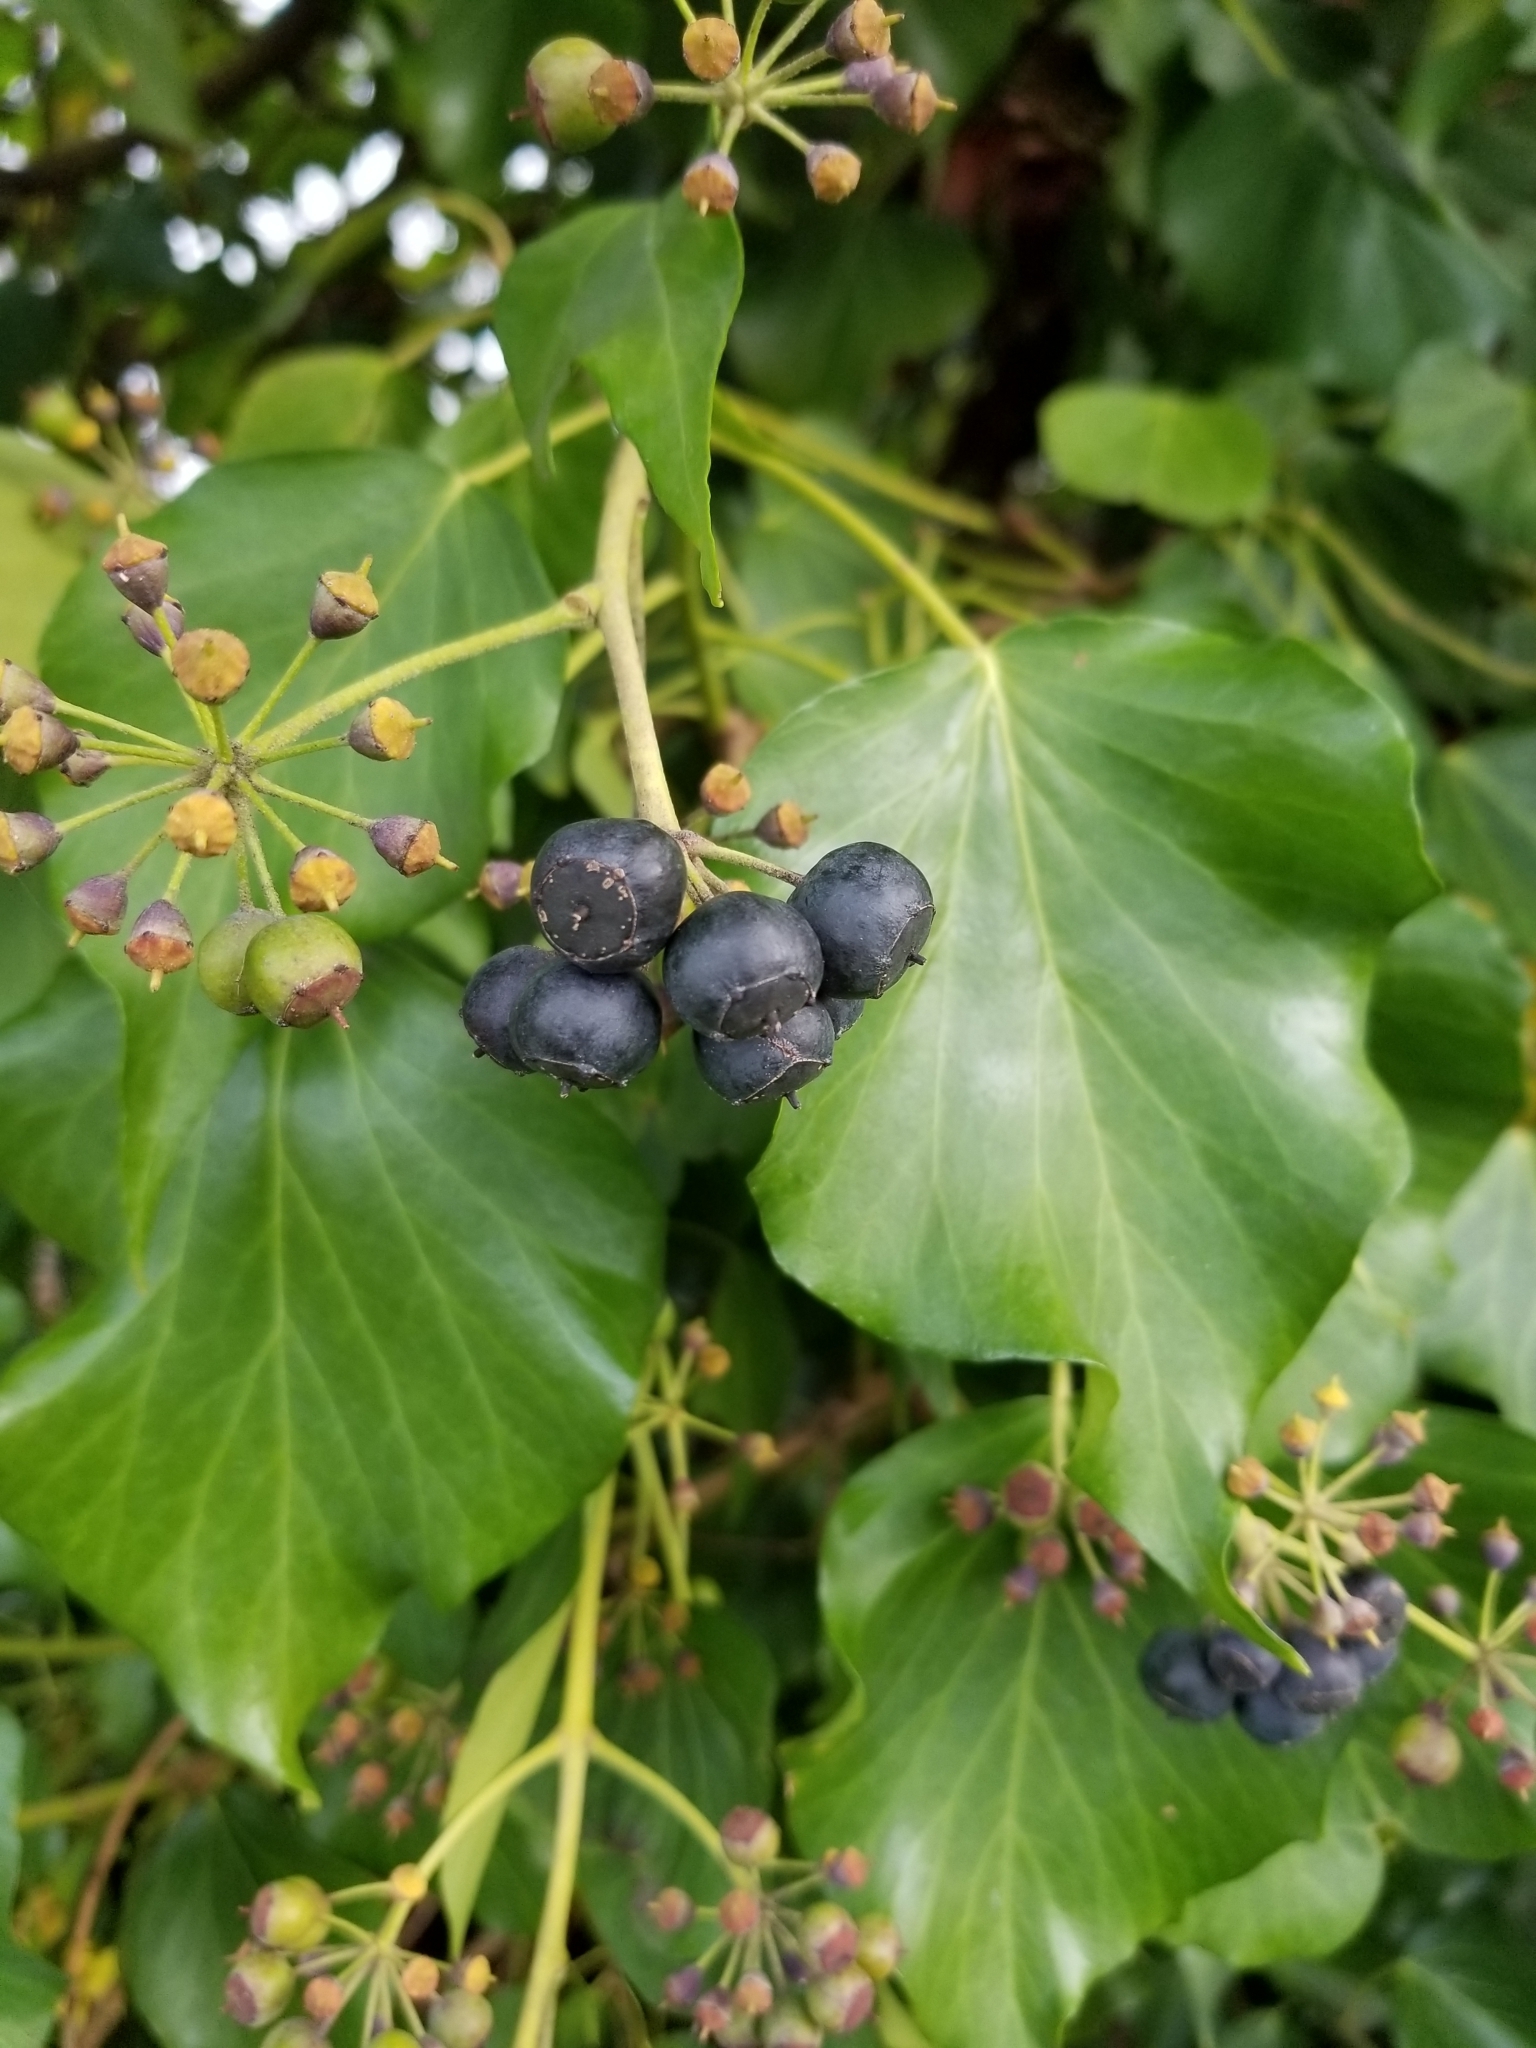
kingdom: Plantae
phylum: Tracheophyta
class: Magnoliopsida
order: Apiales
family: Araliaceae
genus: Hedera
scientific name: Hedera helix
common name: Ivy
